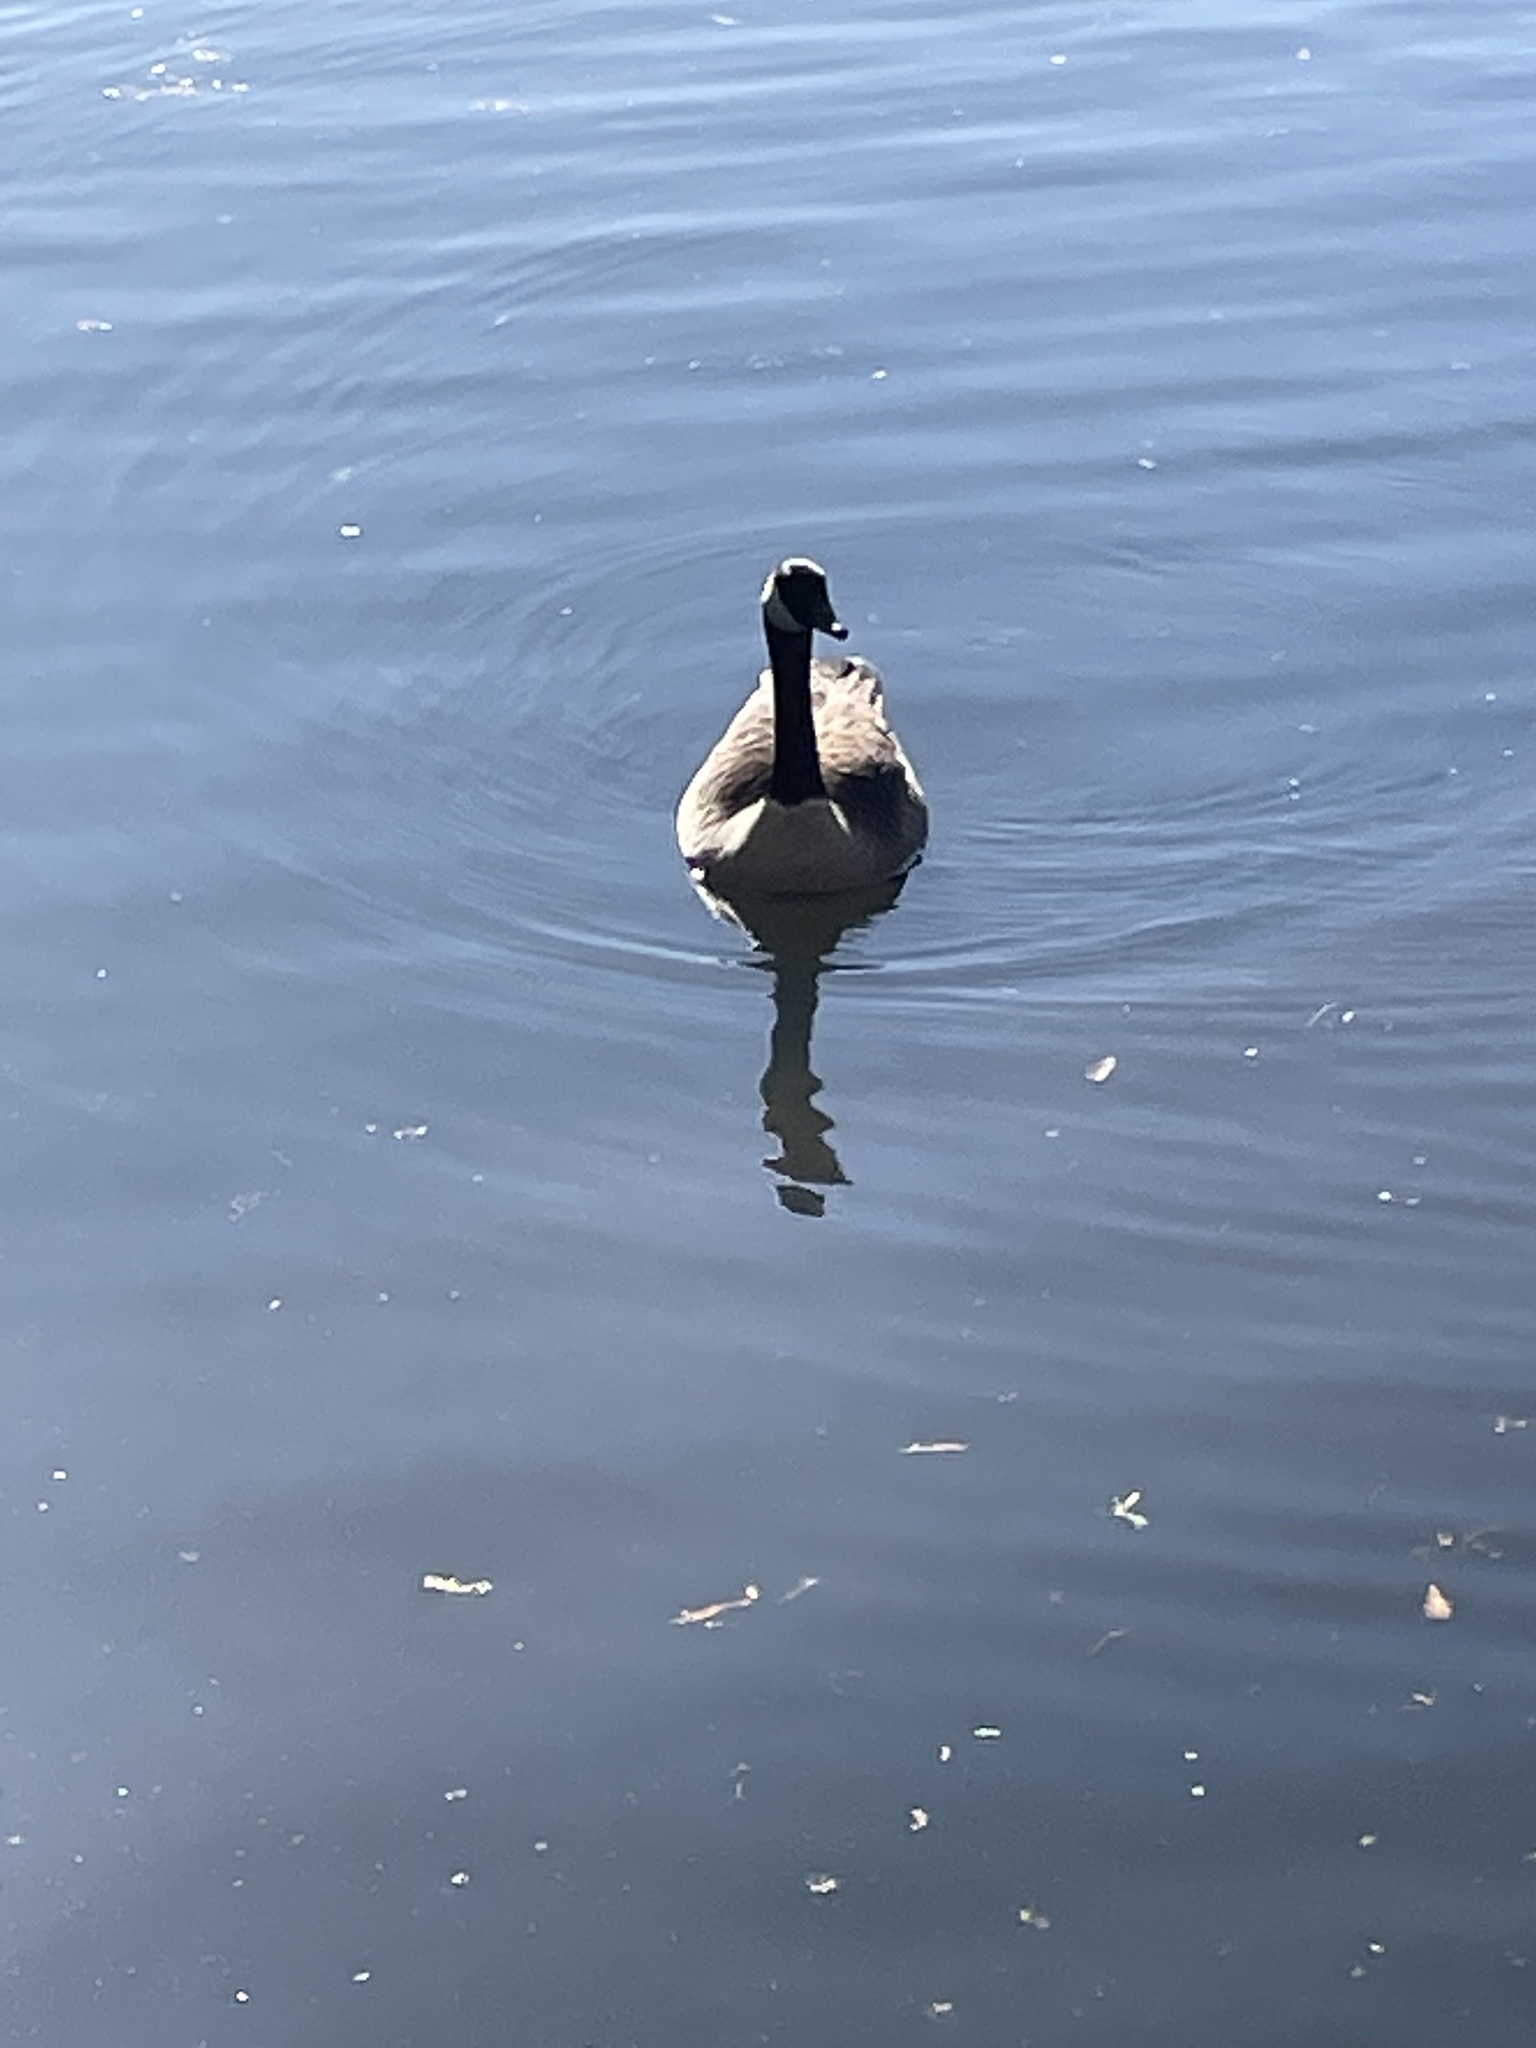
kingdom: Animalia
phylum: Chordata
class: Aves
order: Anseriformes
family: Anatidae
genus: Branta
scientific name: Branta canadensis
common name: Canada goose
